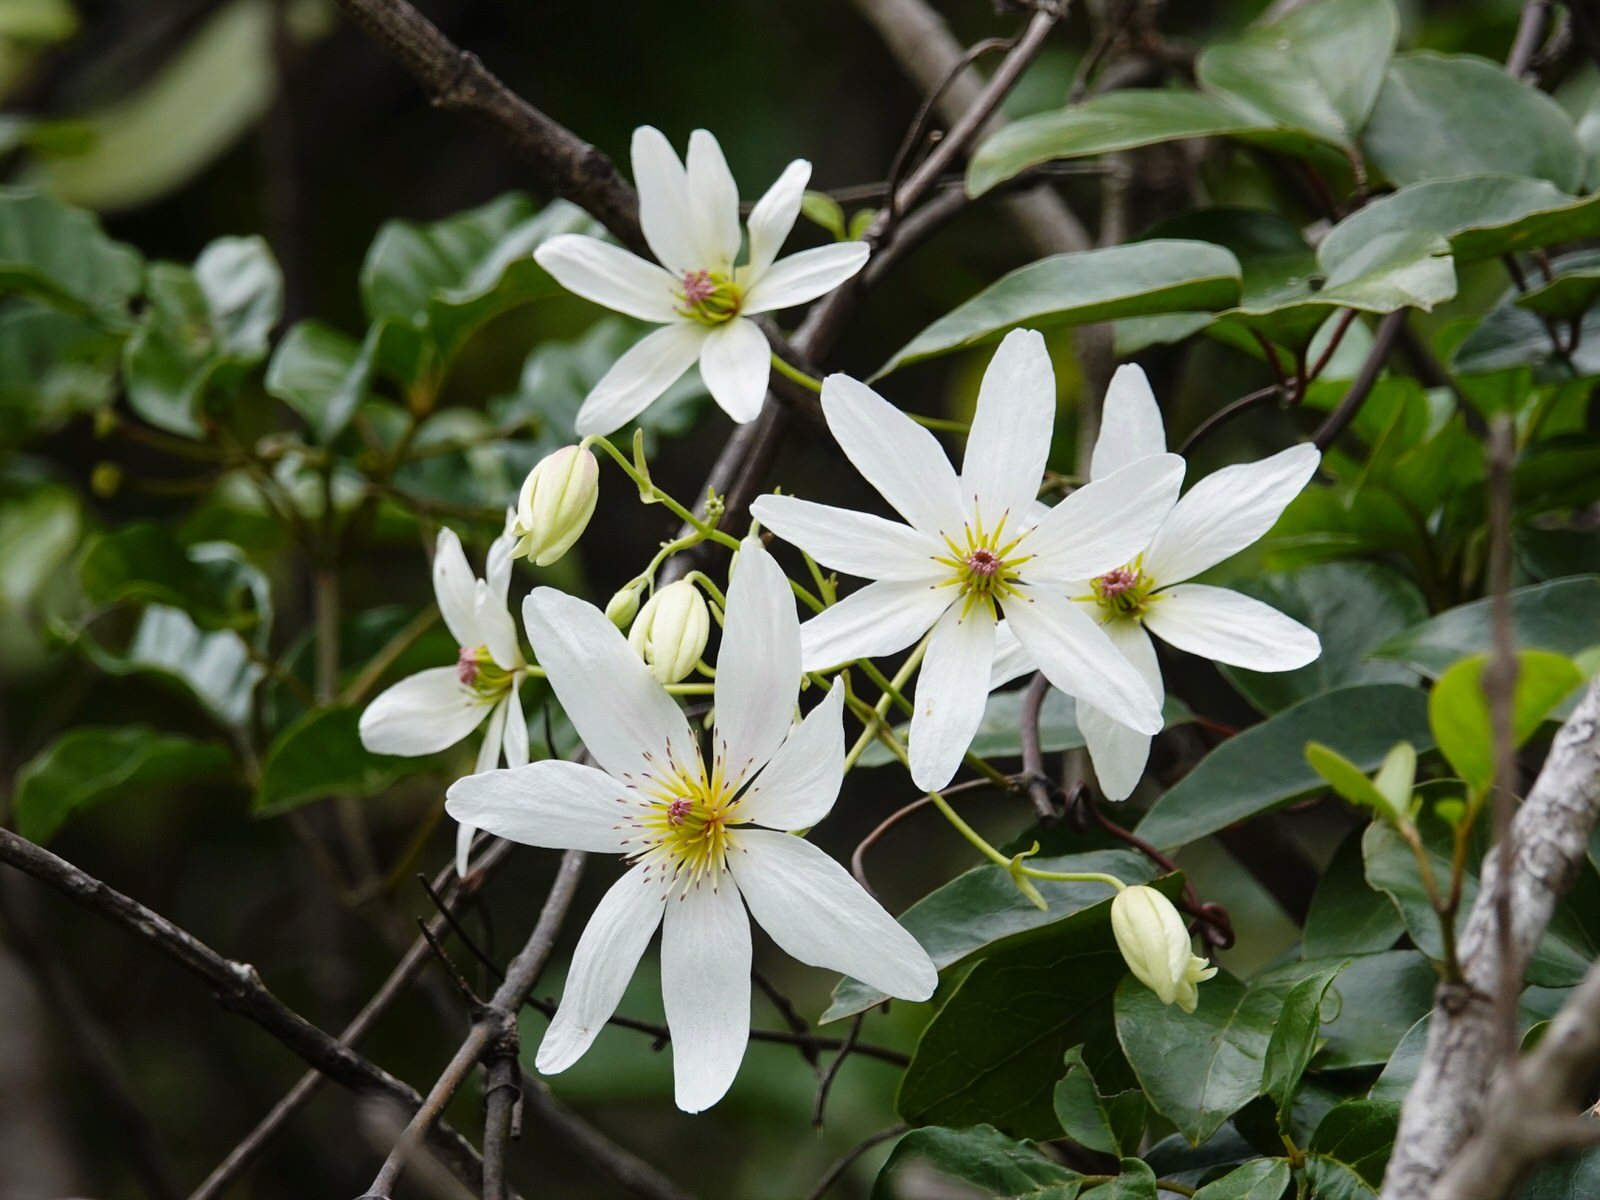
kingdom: Plantae
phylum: Tracheophyta
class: Magnoliopsida
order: Ranunculales
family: Ranunculaceae
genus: Clematis
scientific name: Clematis paniculata
